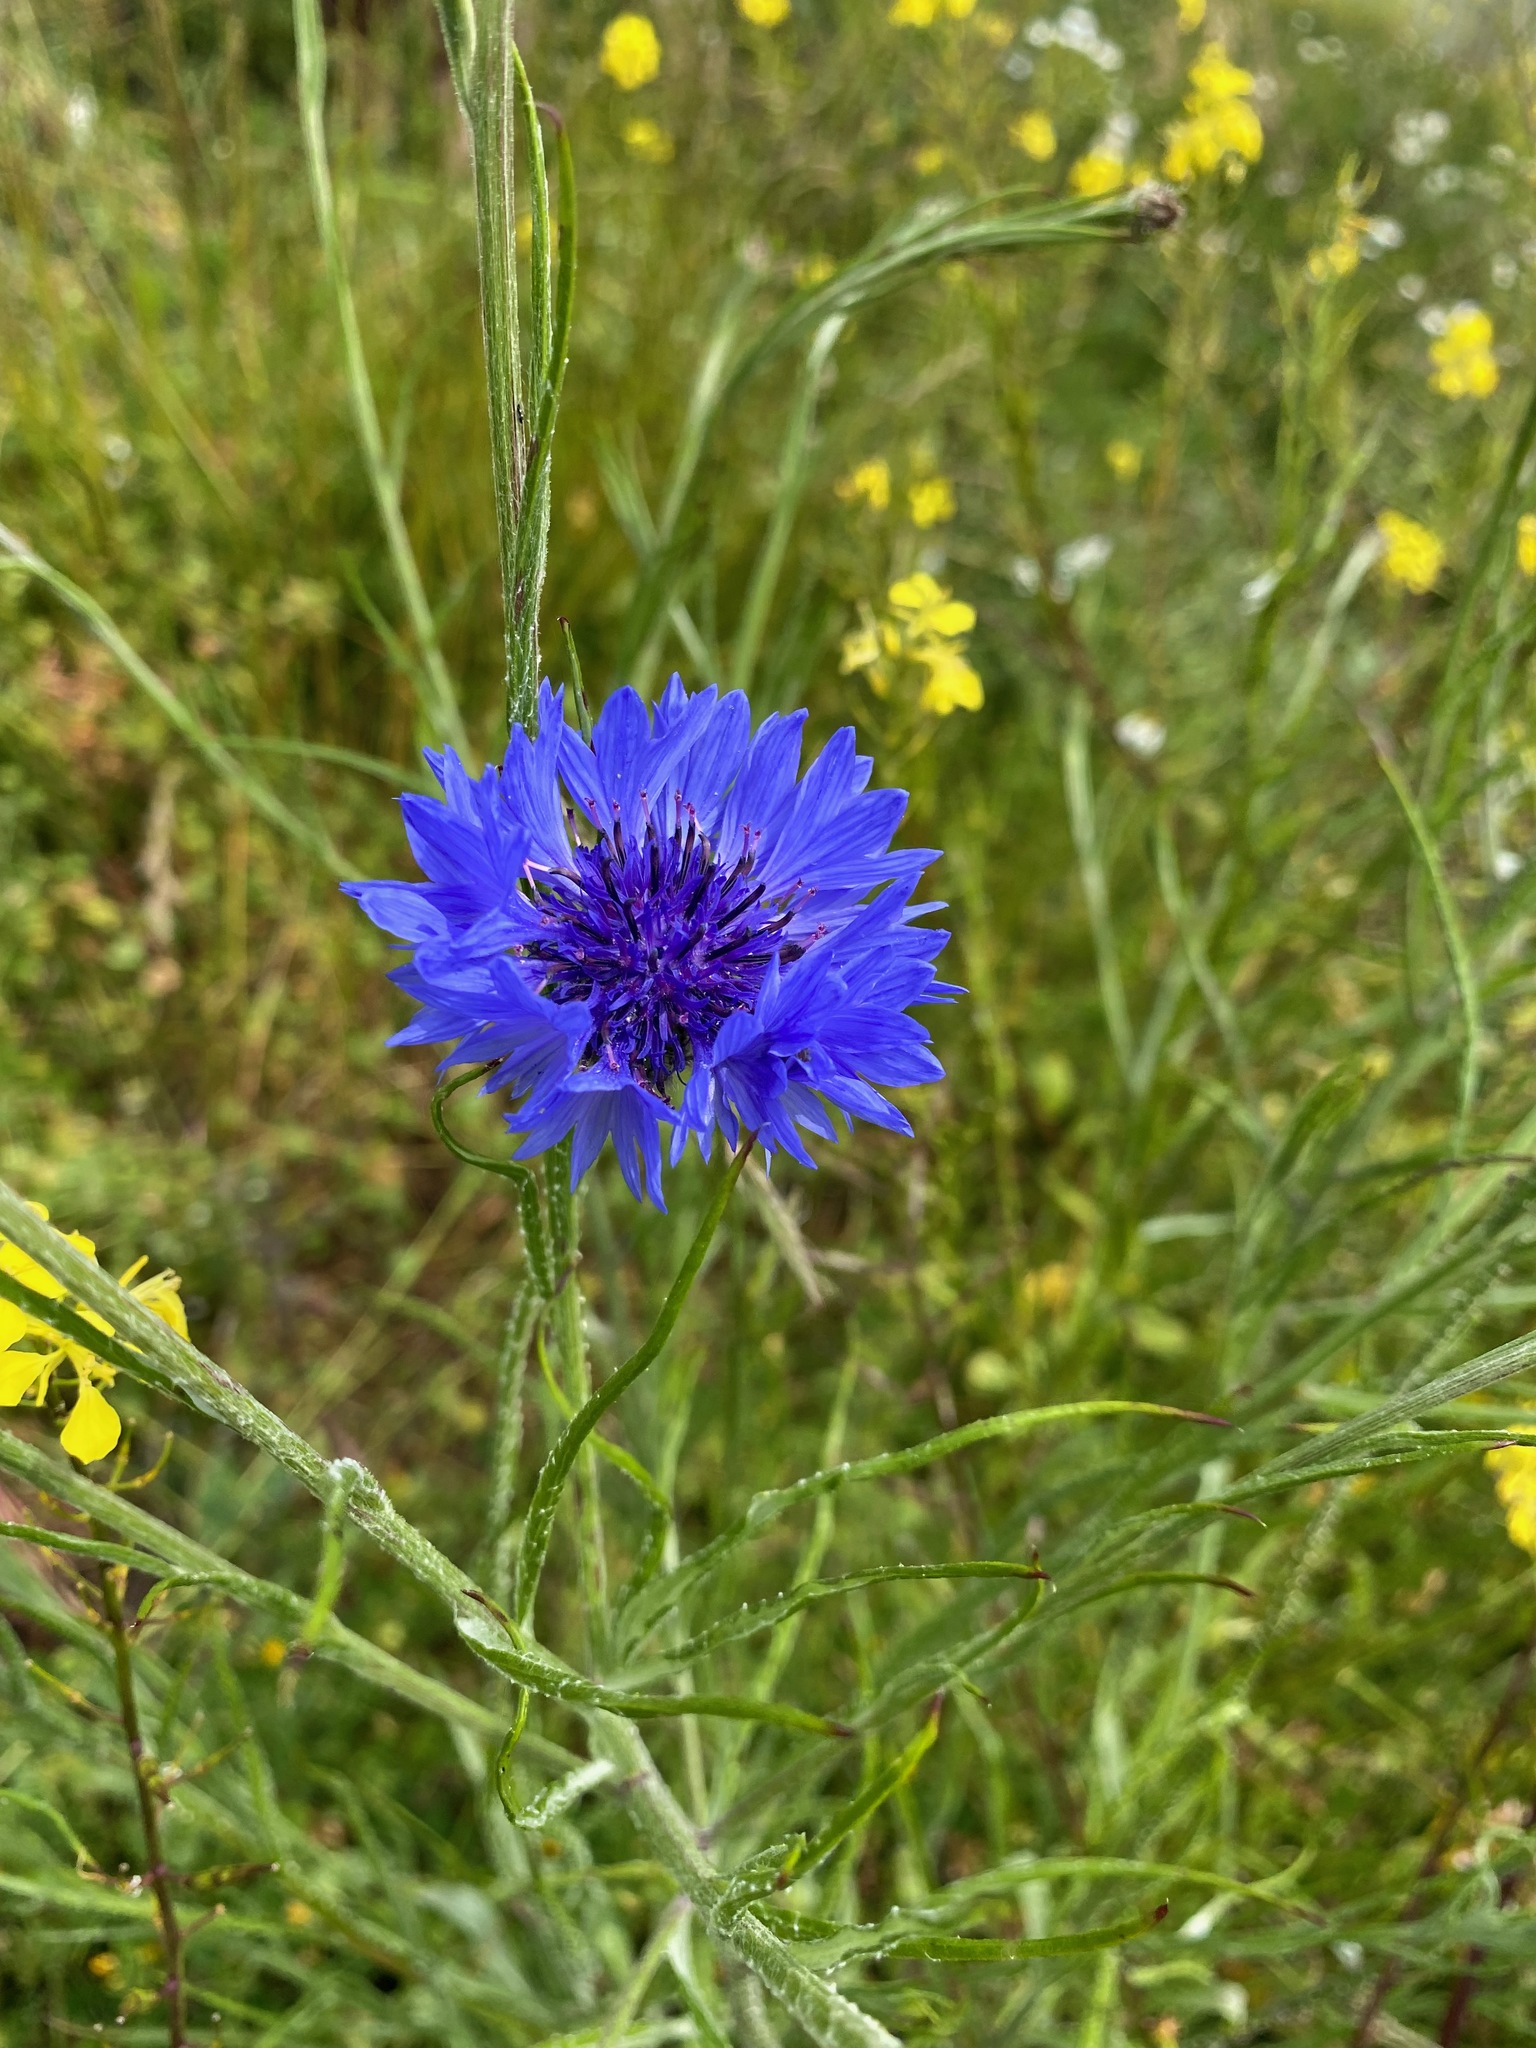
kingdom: Plantae
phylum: Tracheophyta
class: Magnoliopsida
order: Asterales
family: Asteraceae
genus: Centaurea
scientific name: Centaurea cyanus
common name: Cornflower
